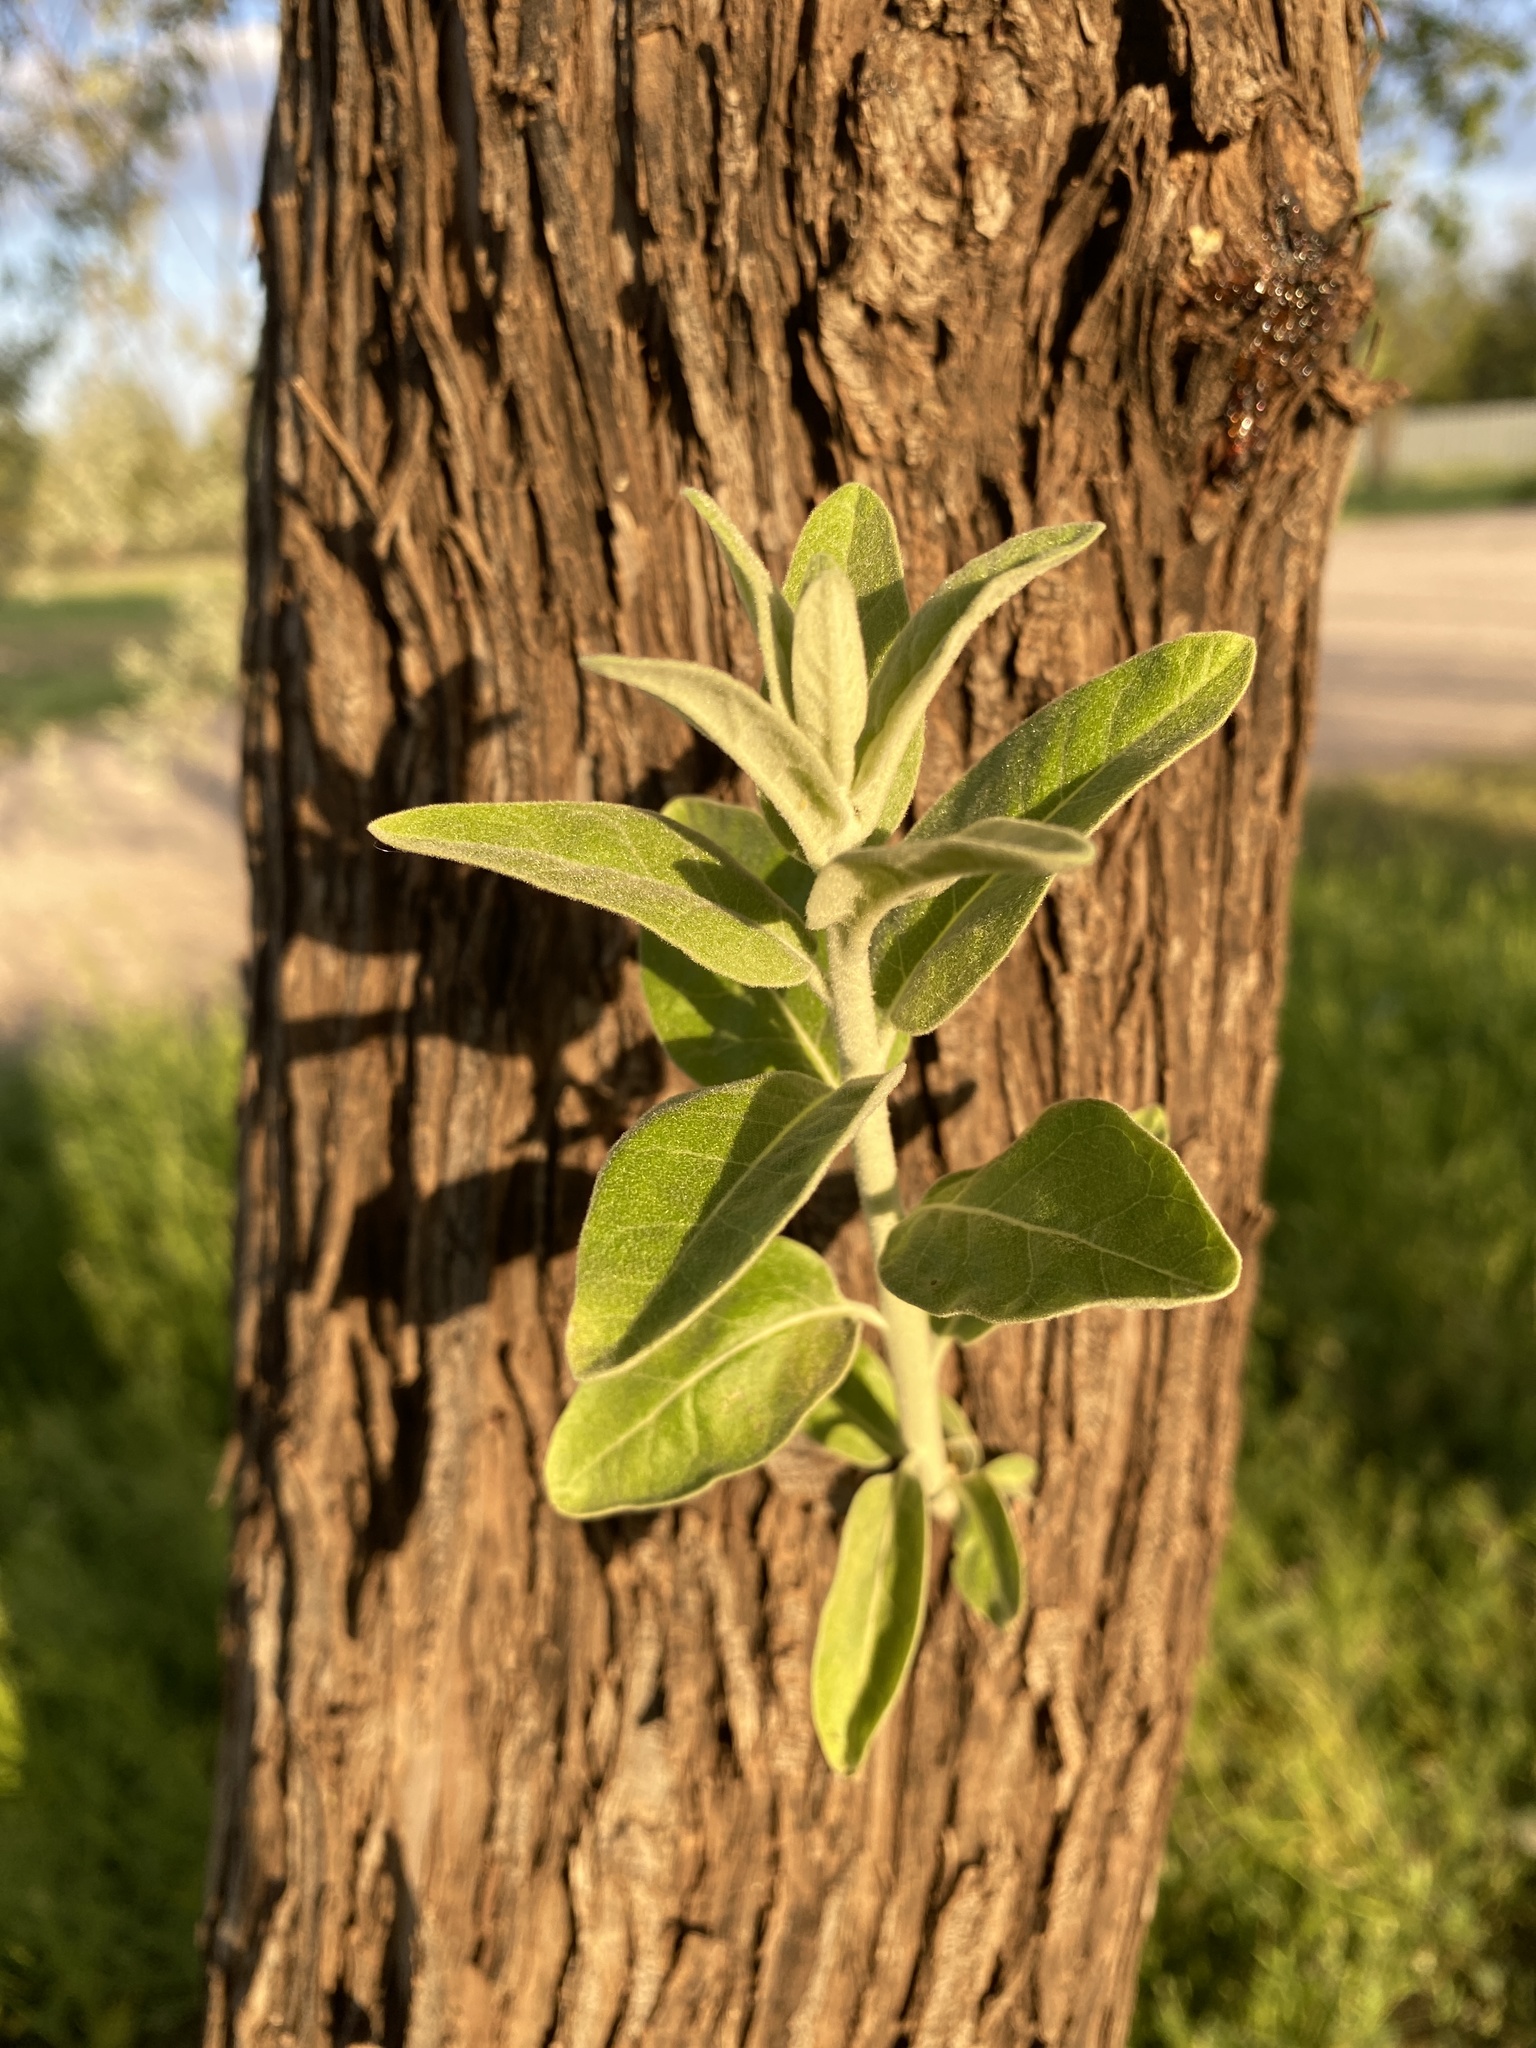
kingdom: Plantae
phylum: Tracheophyta
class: Magnoliopsida
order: Rosales
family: Elaeagnaceae
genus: Elaeagnus
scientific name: Elaeagnus angustifolia
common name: Russian olive
